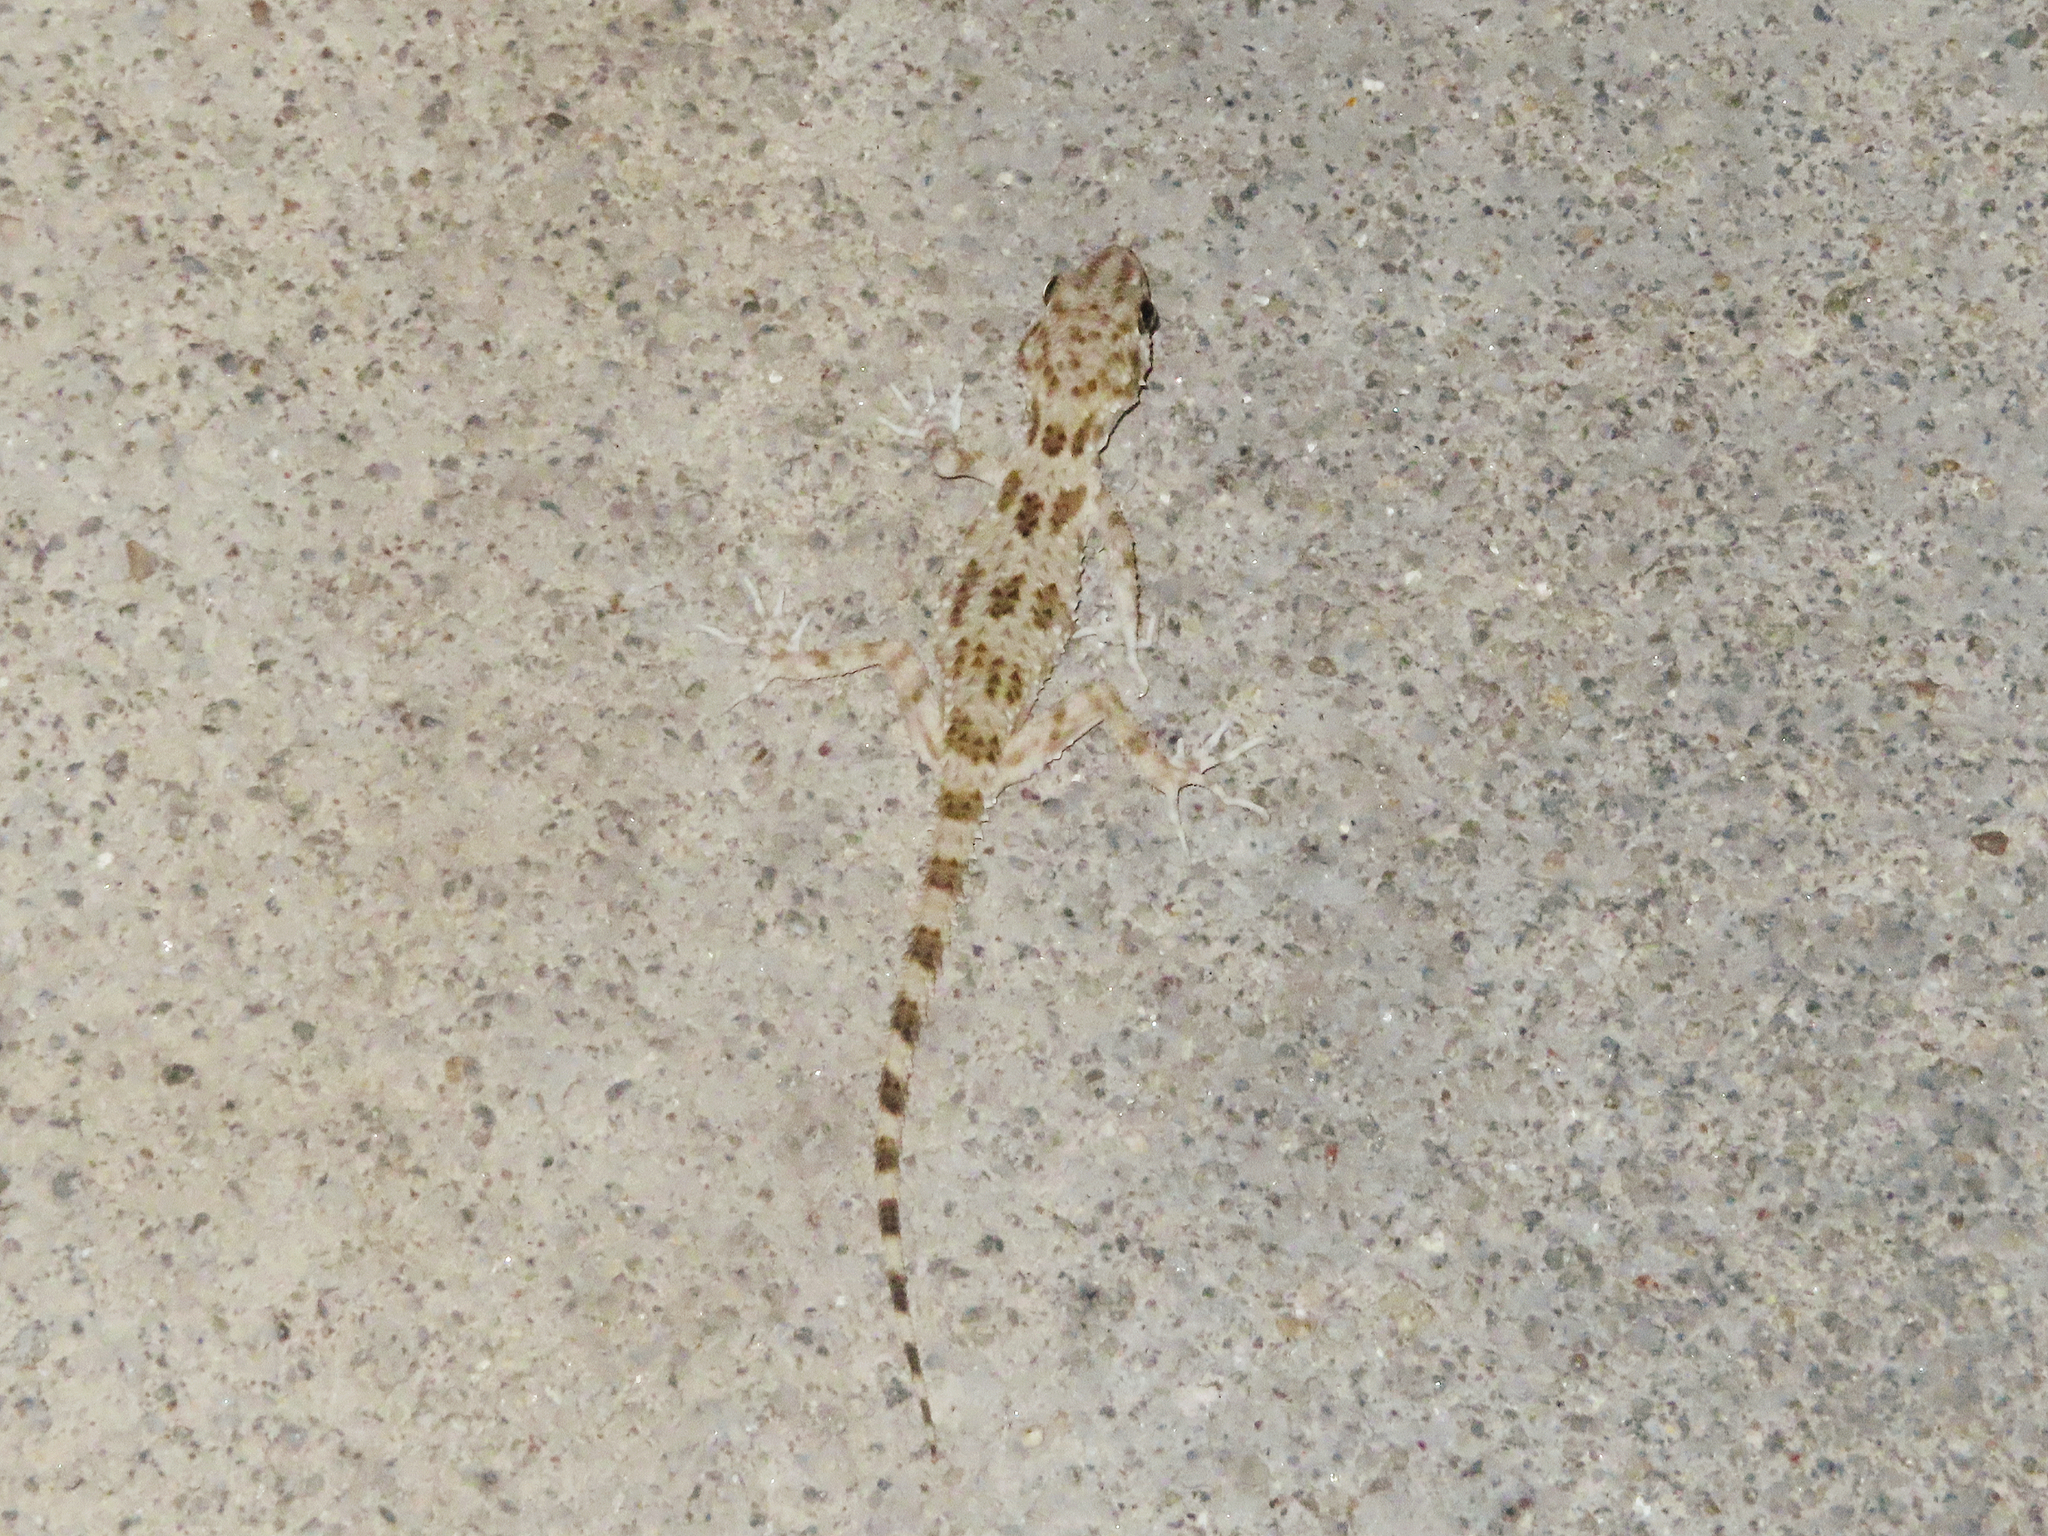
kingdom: Animalia
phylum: Chordata
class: Squamata
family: Gekkonidae
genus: Tenuidactylus
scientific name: Tenuidactylus caspius
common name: Caspian bent-toed gecko
